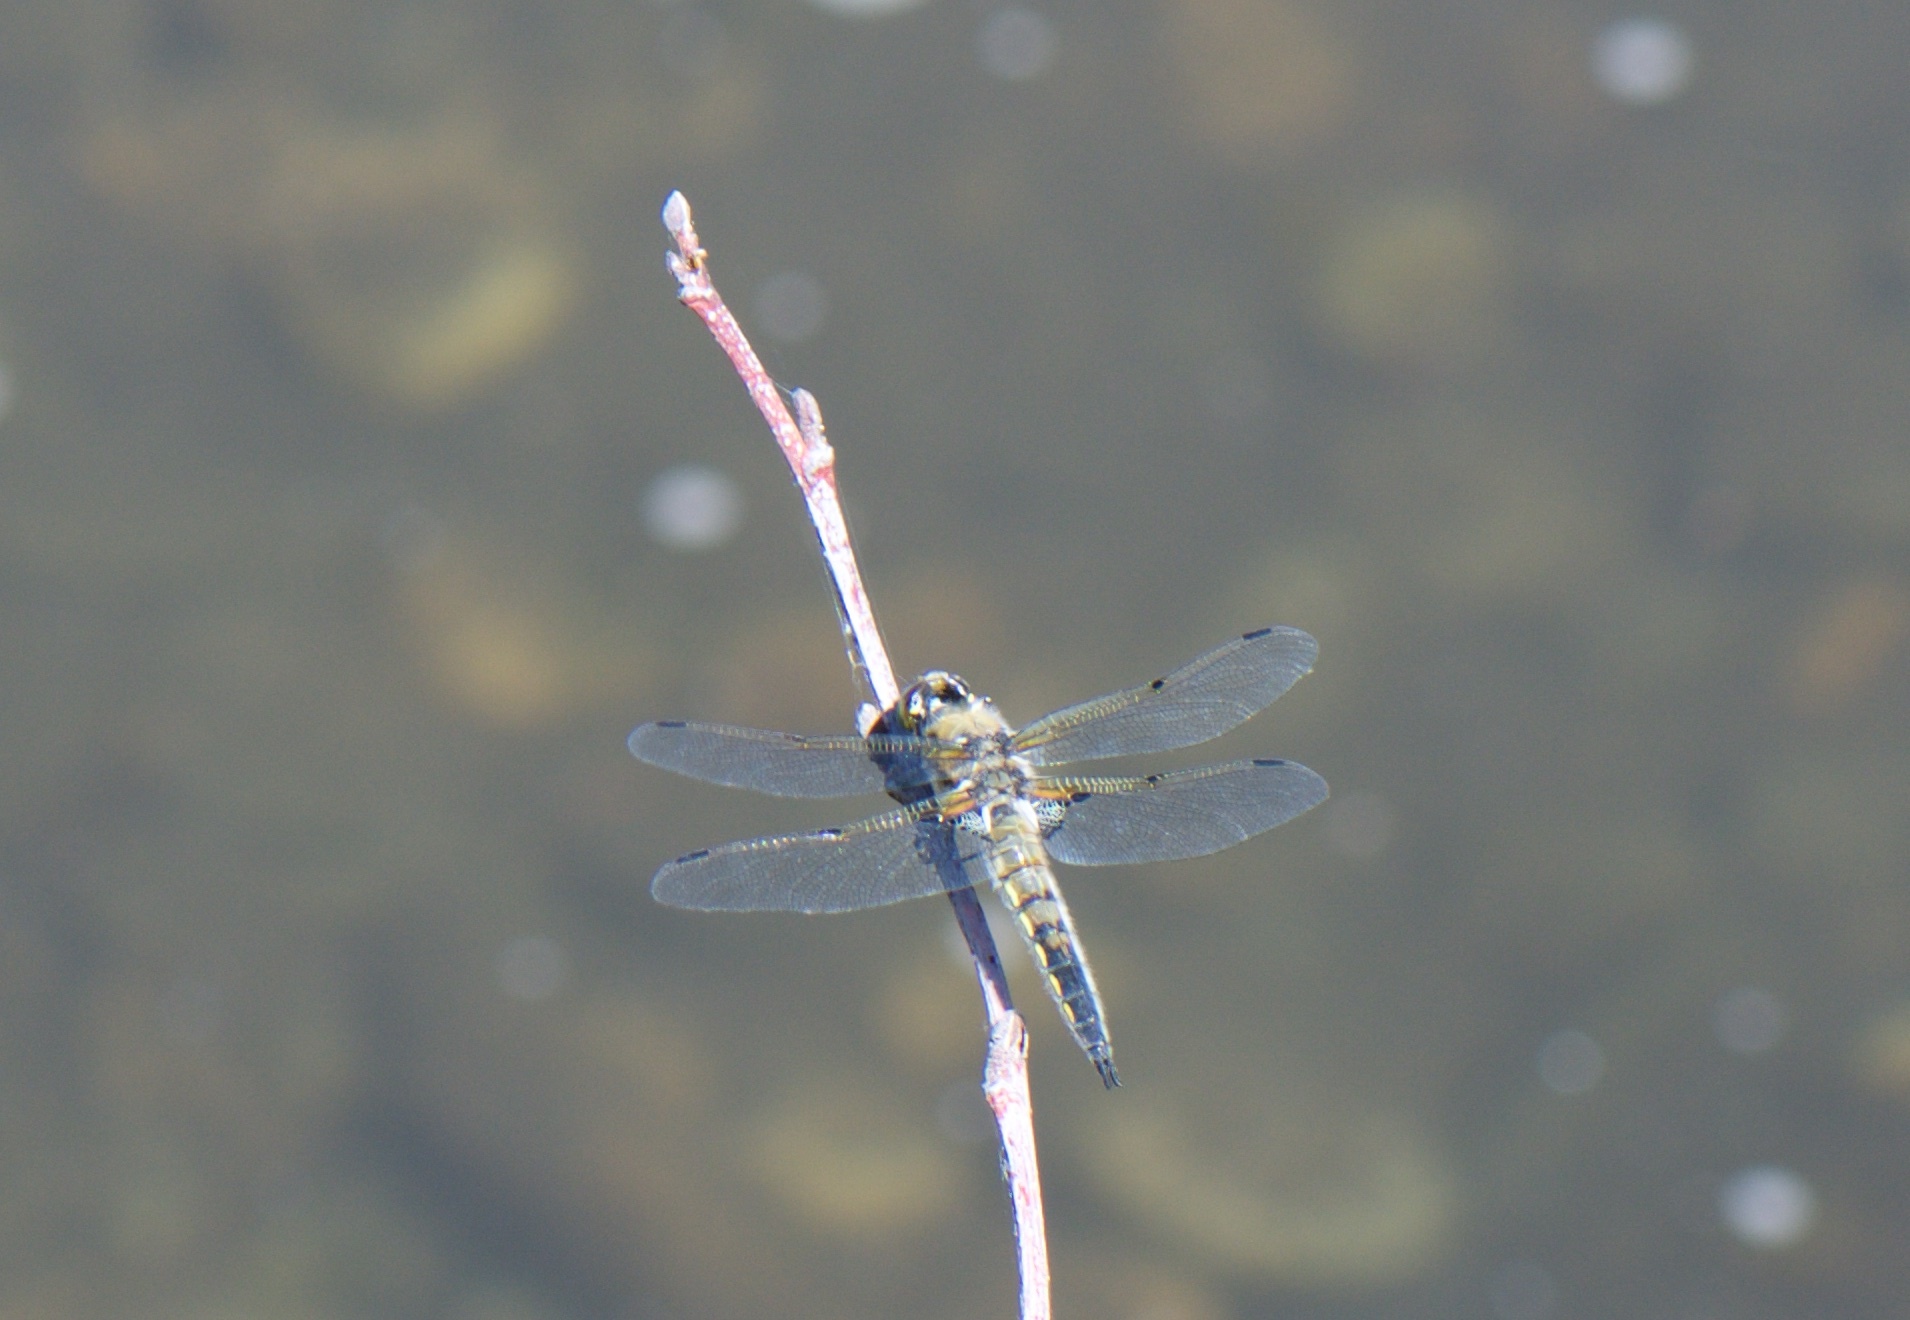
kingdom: Animalia
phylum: Arthropoda
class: Insecta
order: Odonata
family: Libellulidae
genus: Libellula
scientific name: Libellula quadrimaculata
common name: Four-spotted chaser
